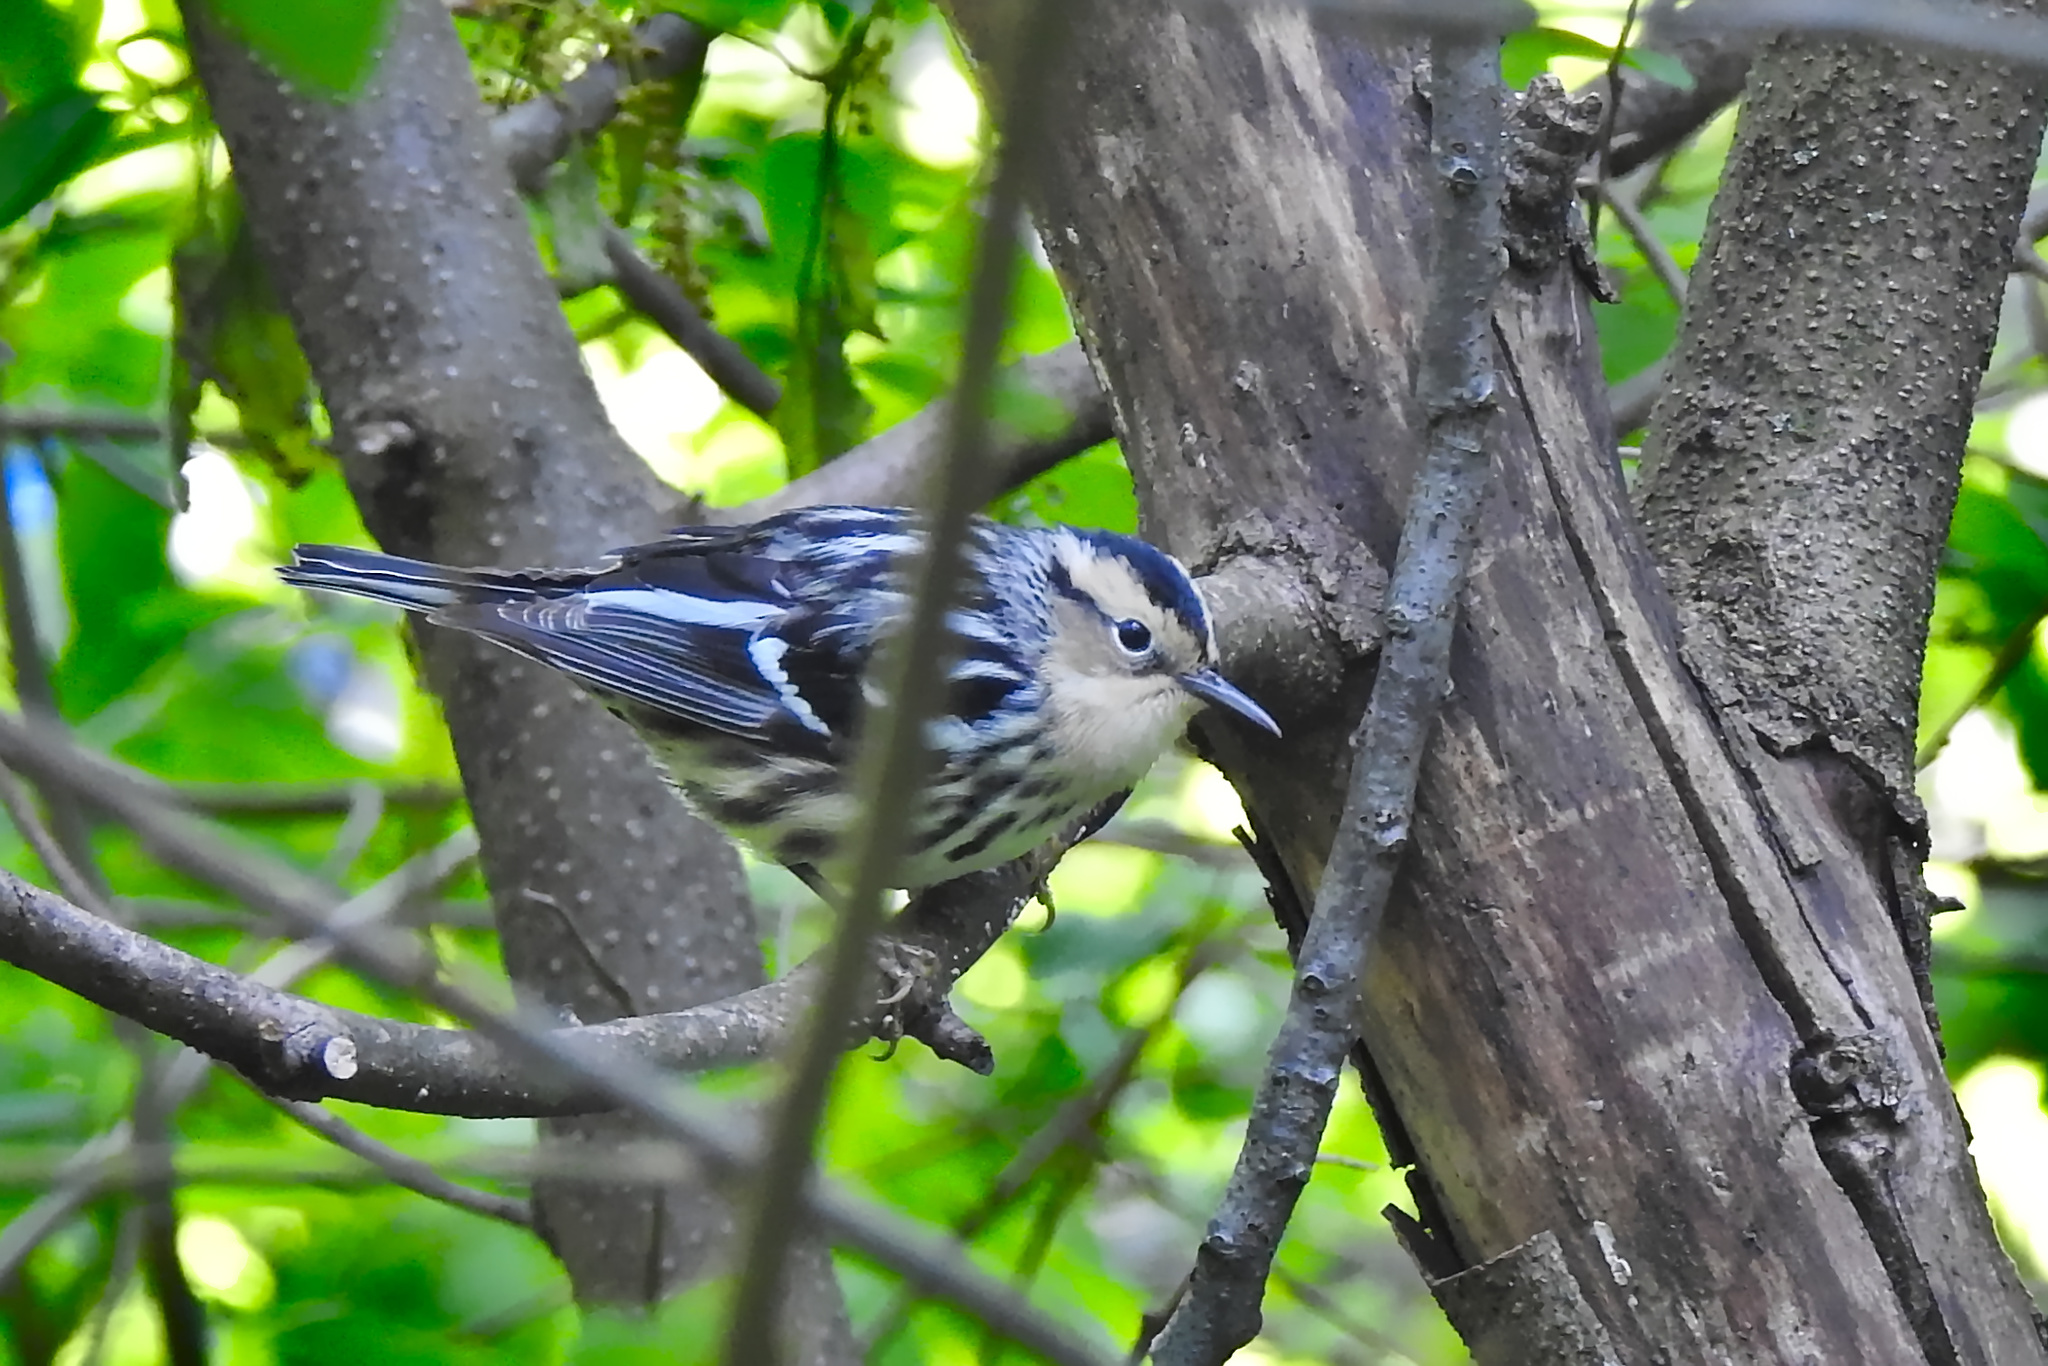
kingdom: Animalia
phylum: Chordata
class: Aves
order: Passeriformes
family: Parulidae
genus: Mniotilta
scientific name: Mniotilta varia
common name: Black-and-white warbler
